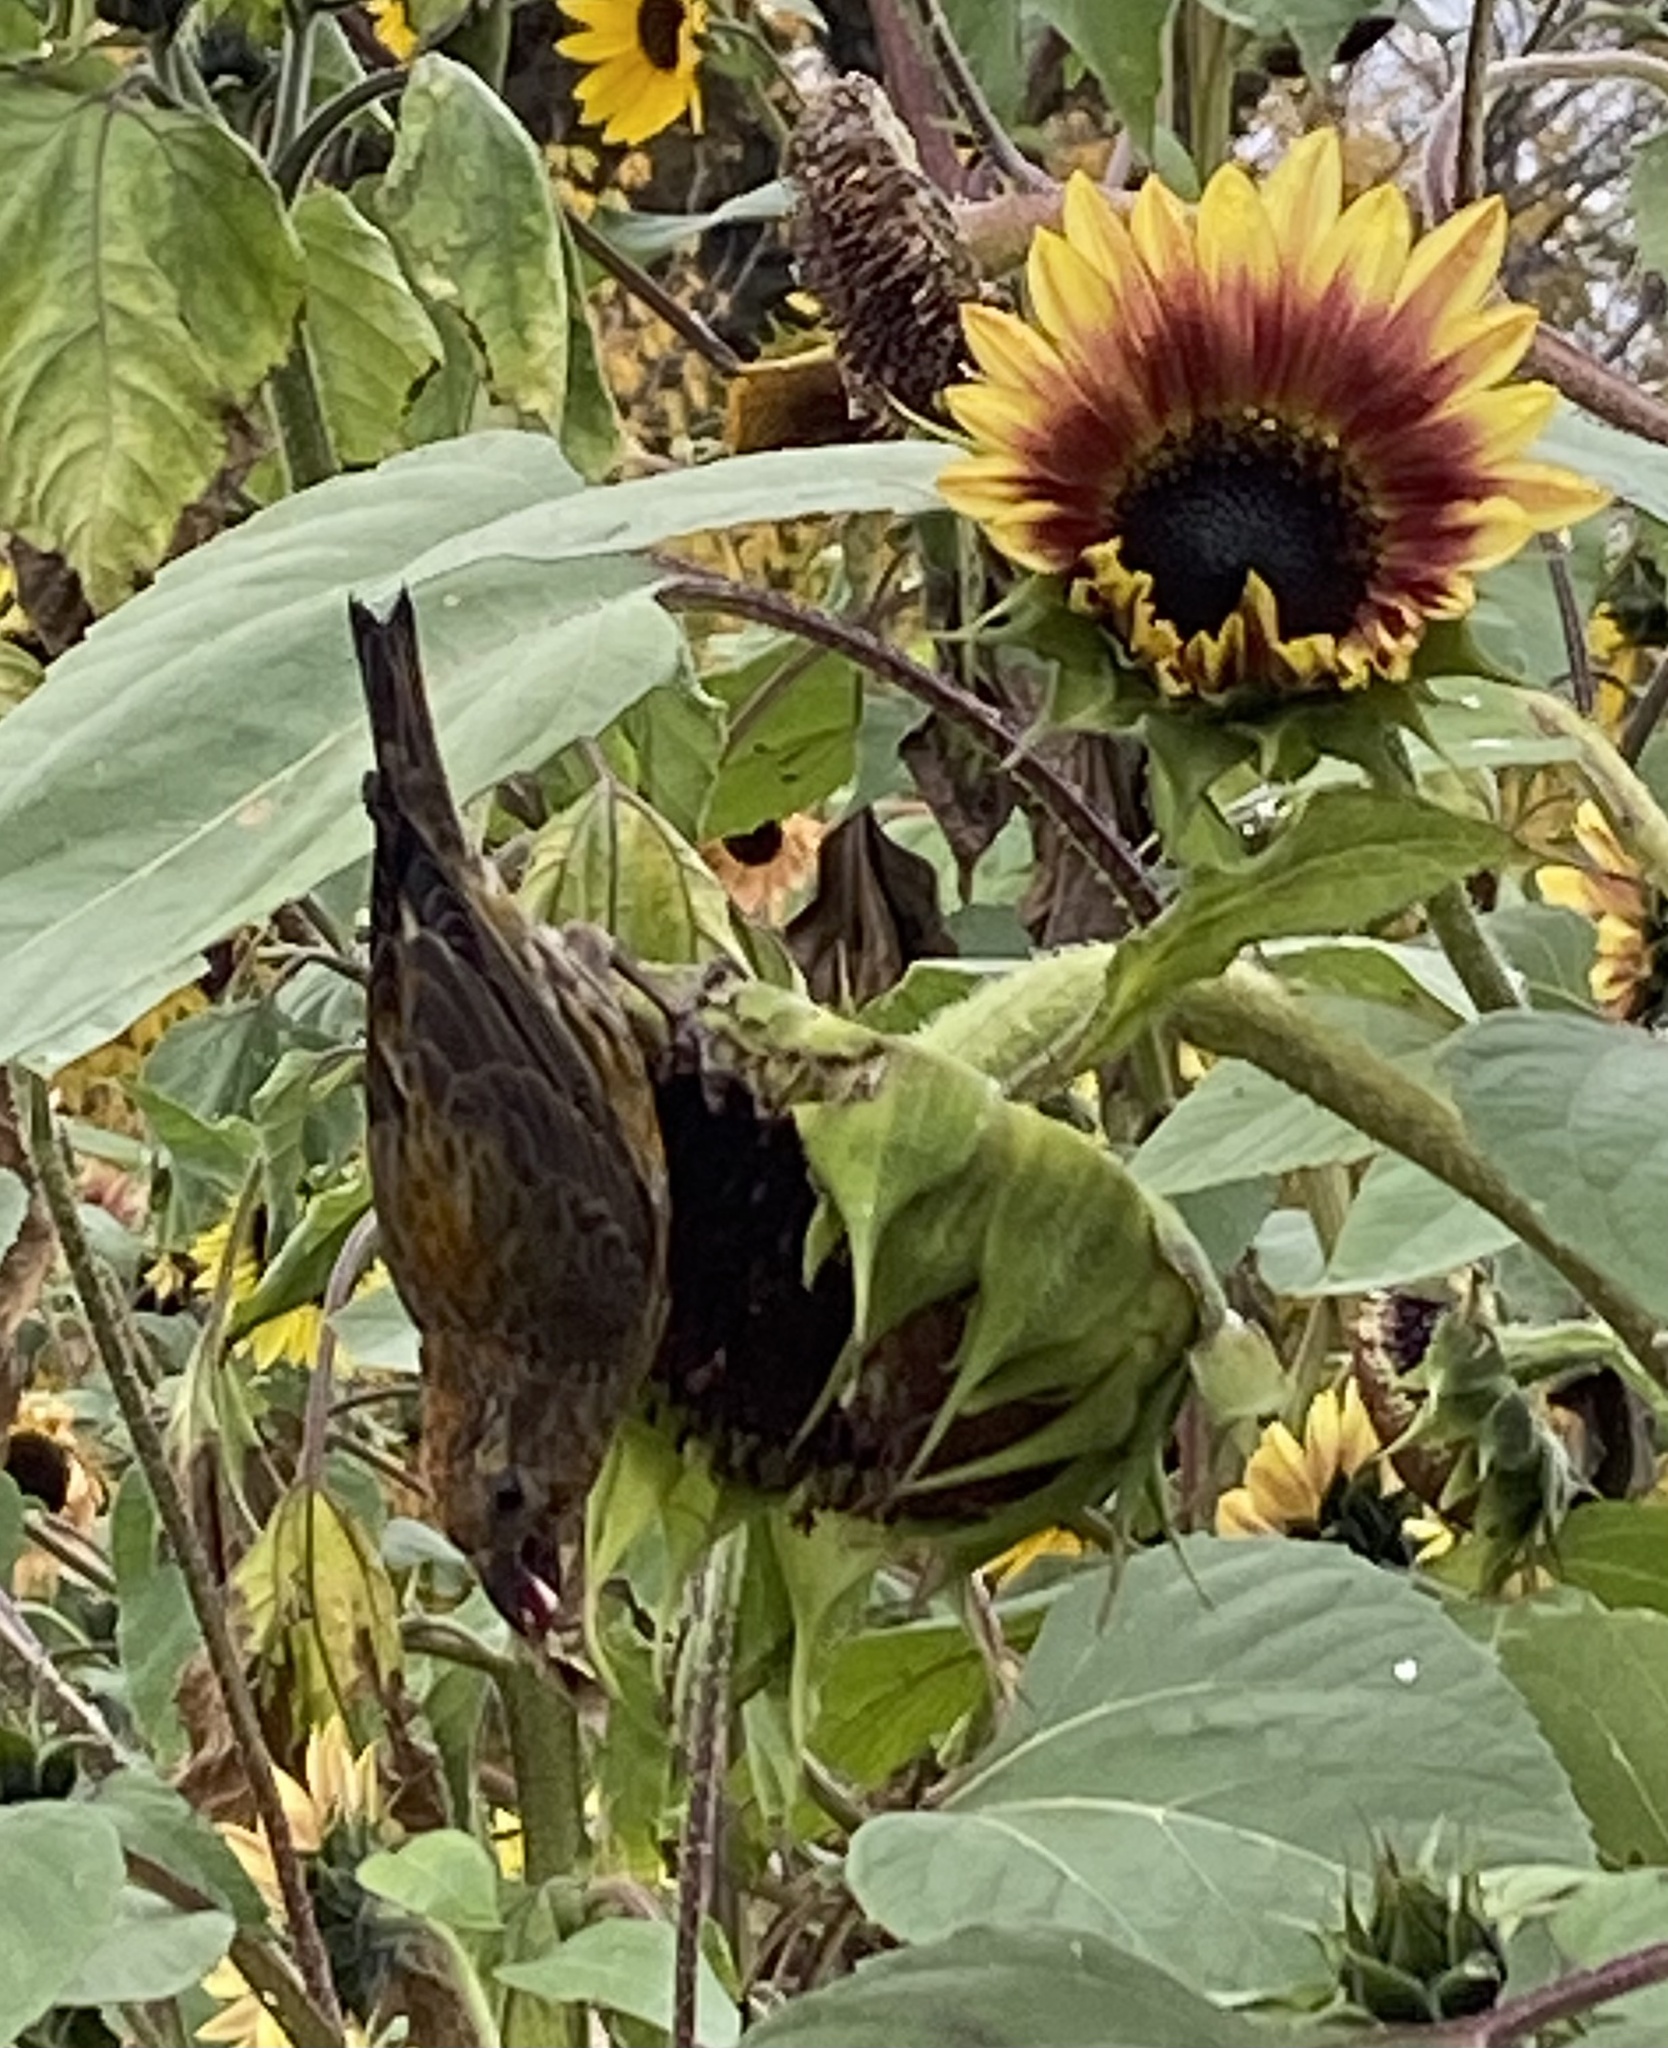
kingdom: Animalia
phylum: Chordata
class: Aves
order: Passeriformes
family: Fringillidae
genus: Loxia
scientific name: Loxia curvirostra
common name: Red crossbill
